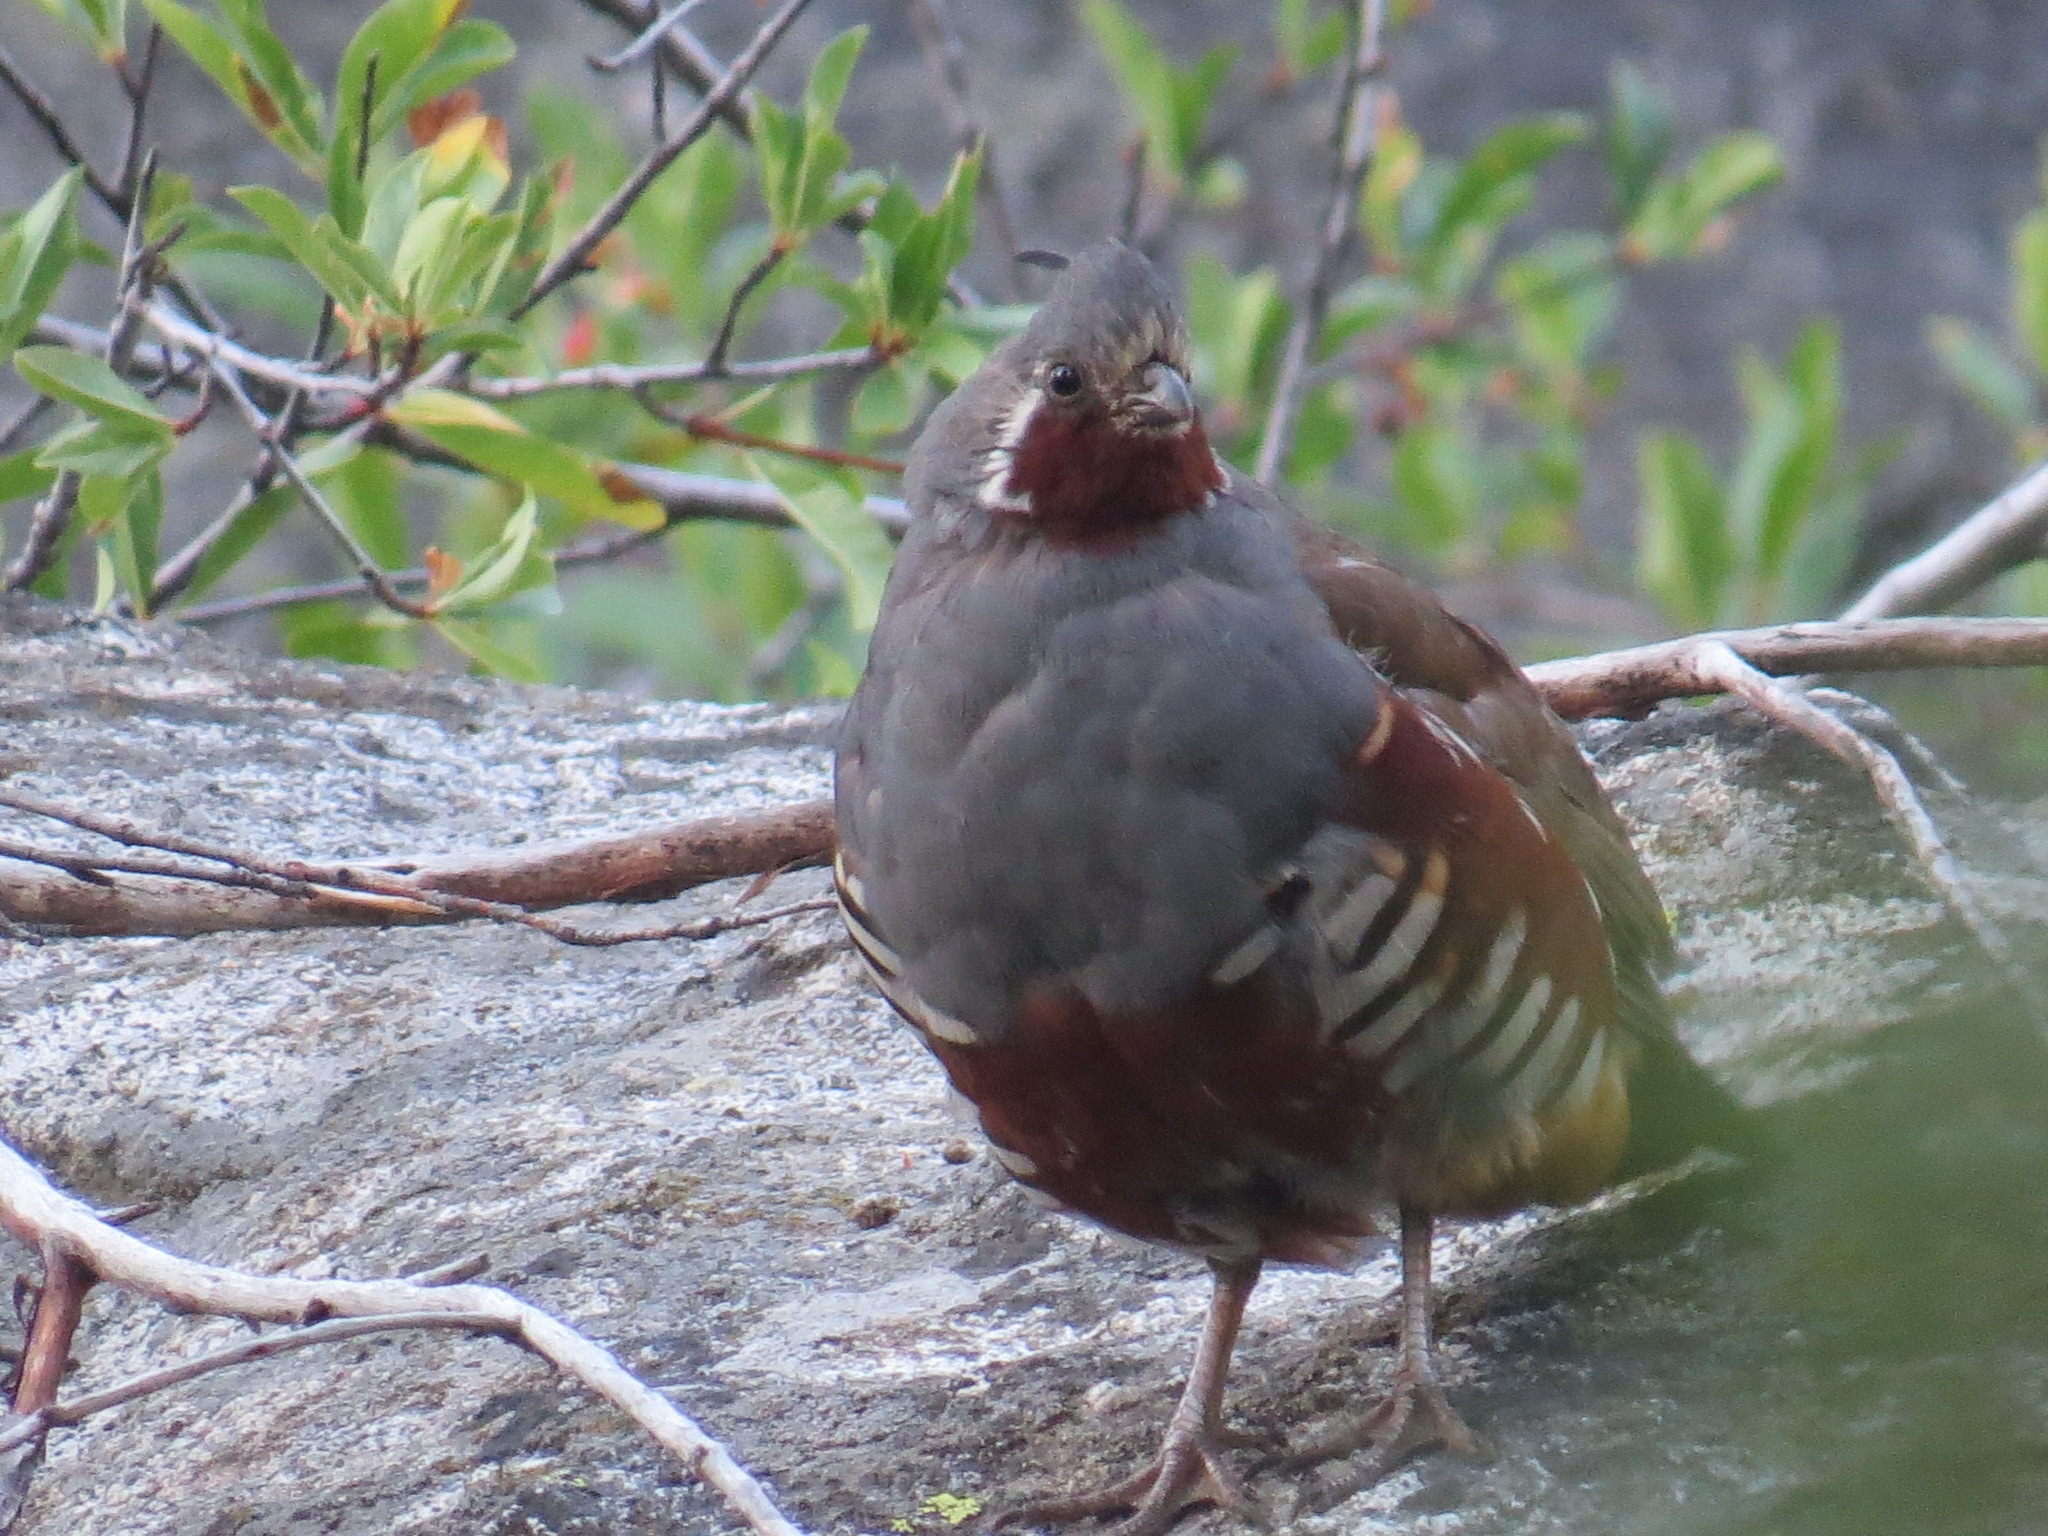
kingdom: Animalia
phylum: Chordata
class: Aves
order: Galliformes
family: Odontophoridae
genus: Oreortyx
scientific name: Oreortyx pictus
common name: Mountain quail
